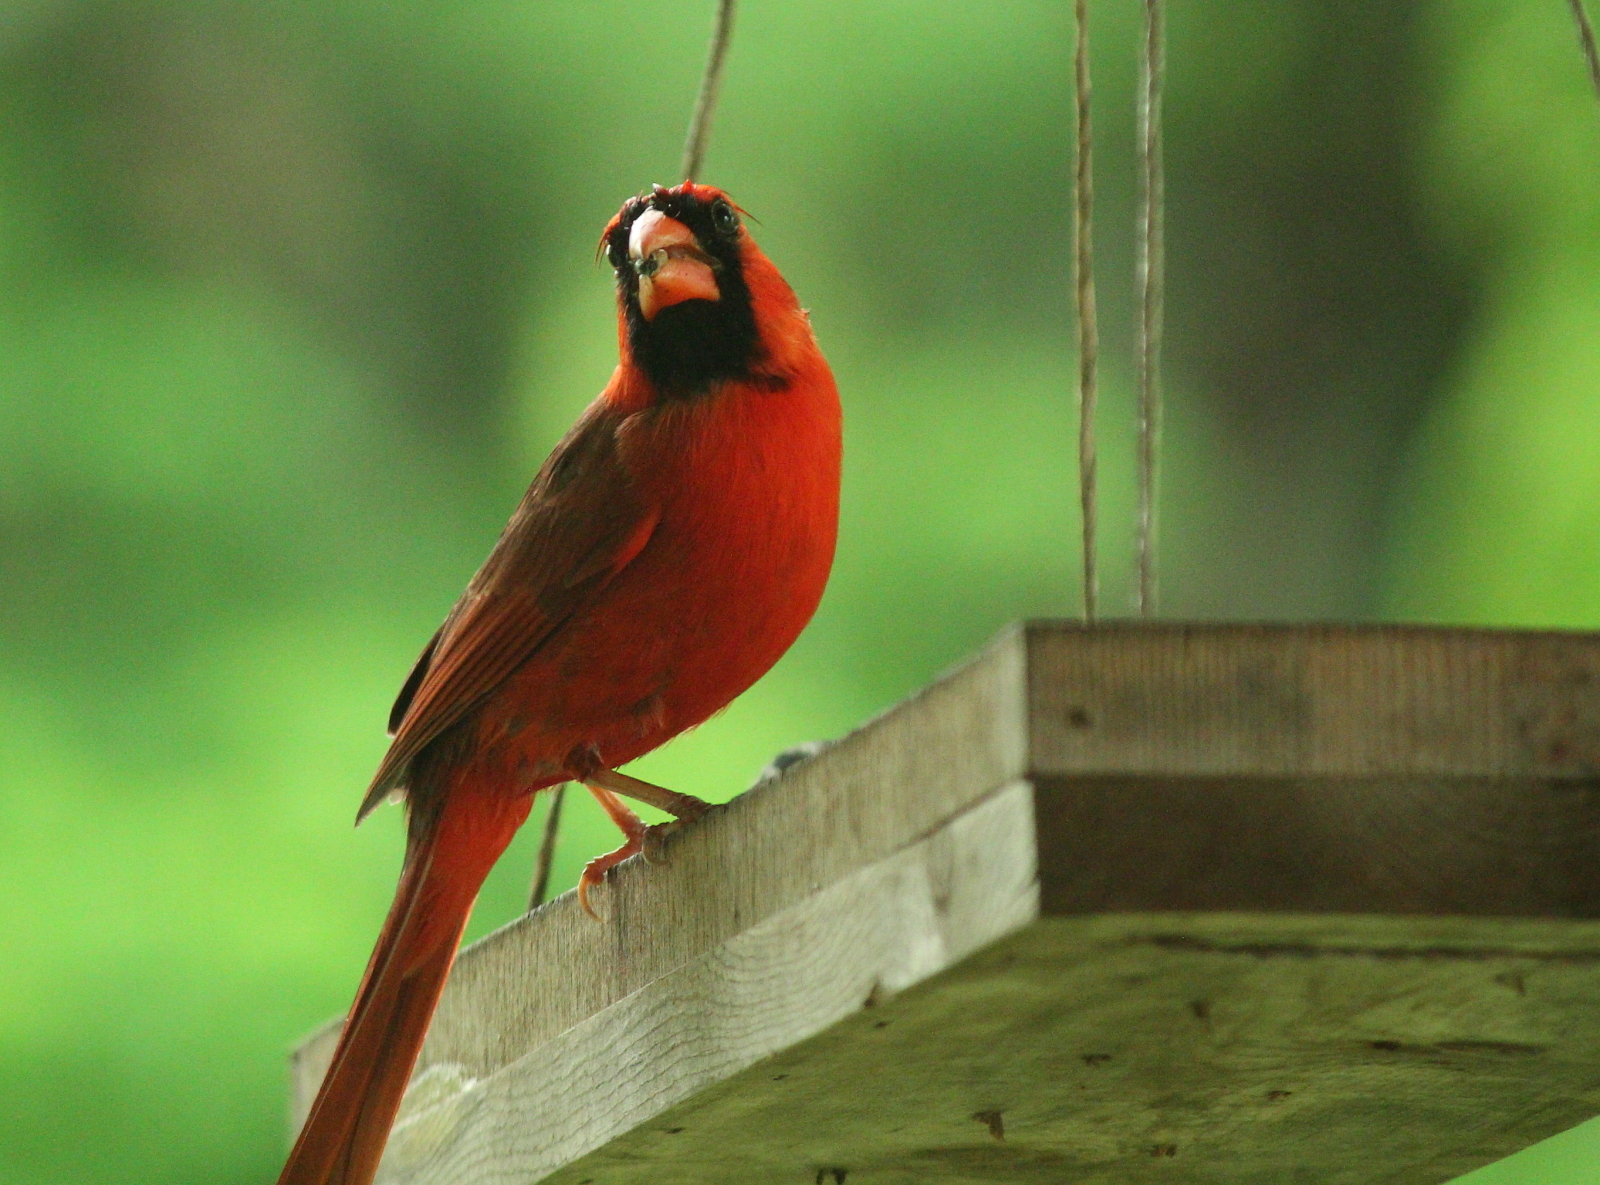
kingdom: Animalia
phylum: Chordata
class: Aves
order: Passeriformes
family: Cardinalidae
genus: Cardinalis
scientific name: Cardinalis cardinalis
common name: Northern cardinal
